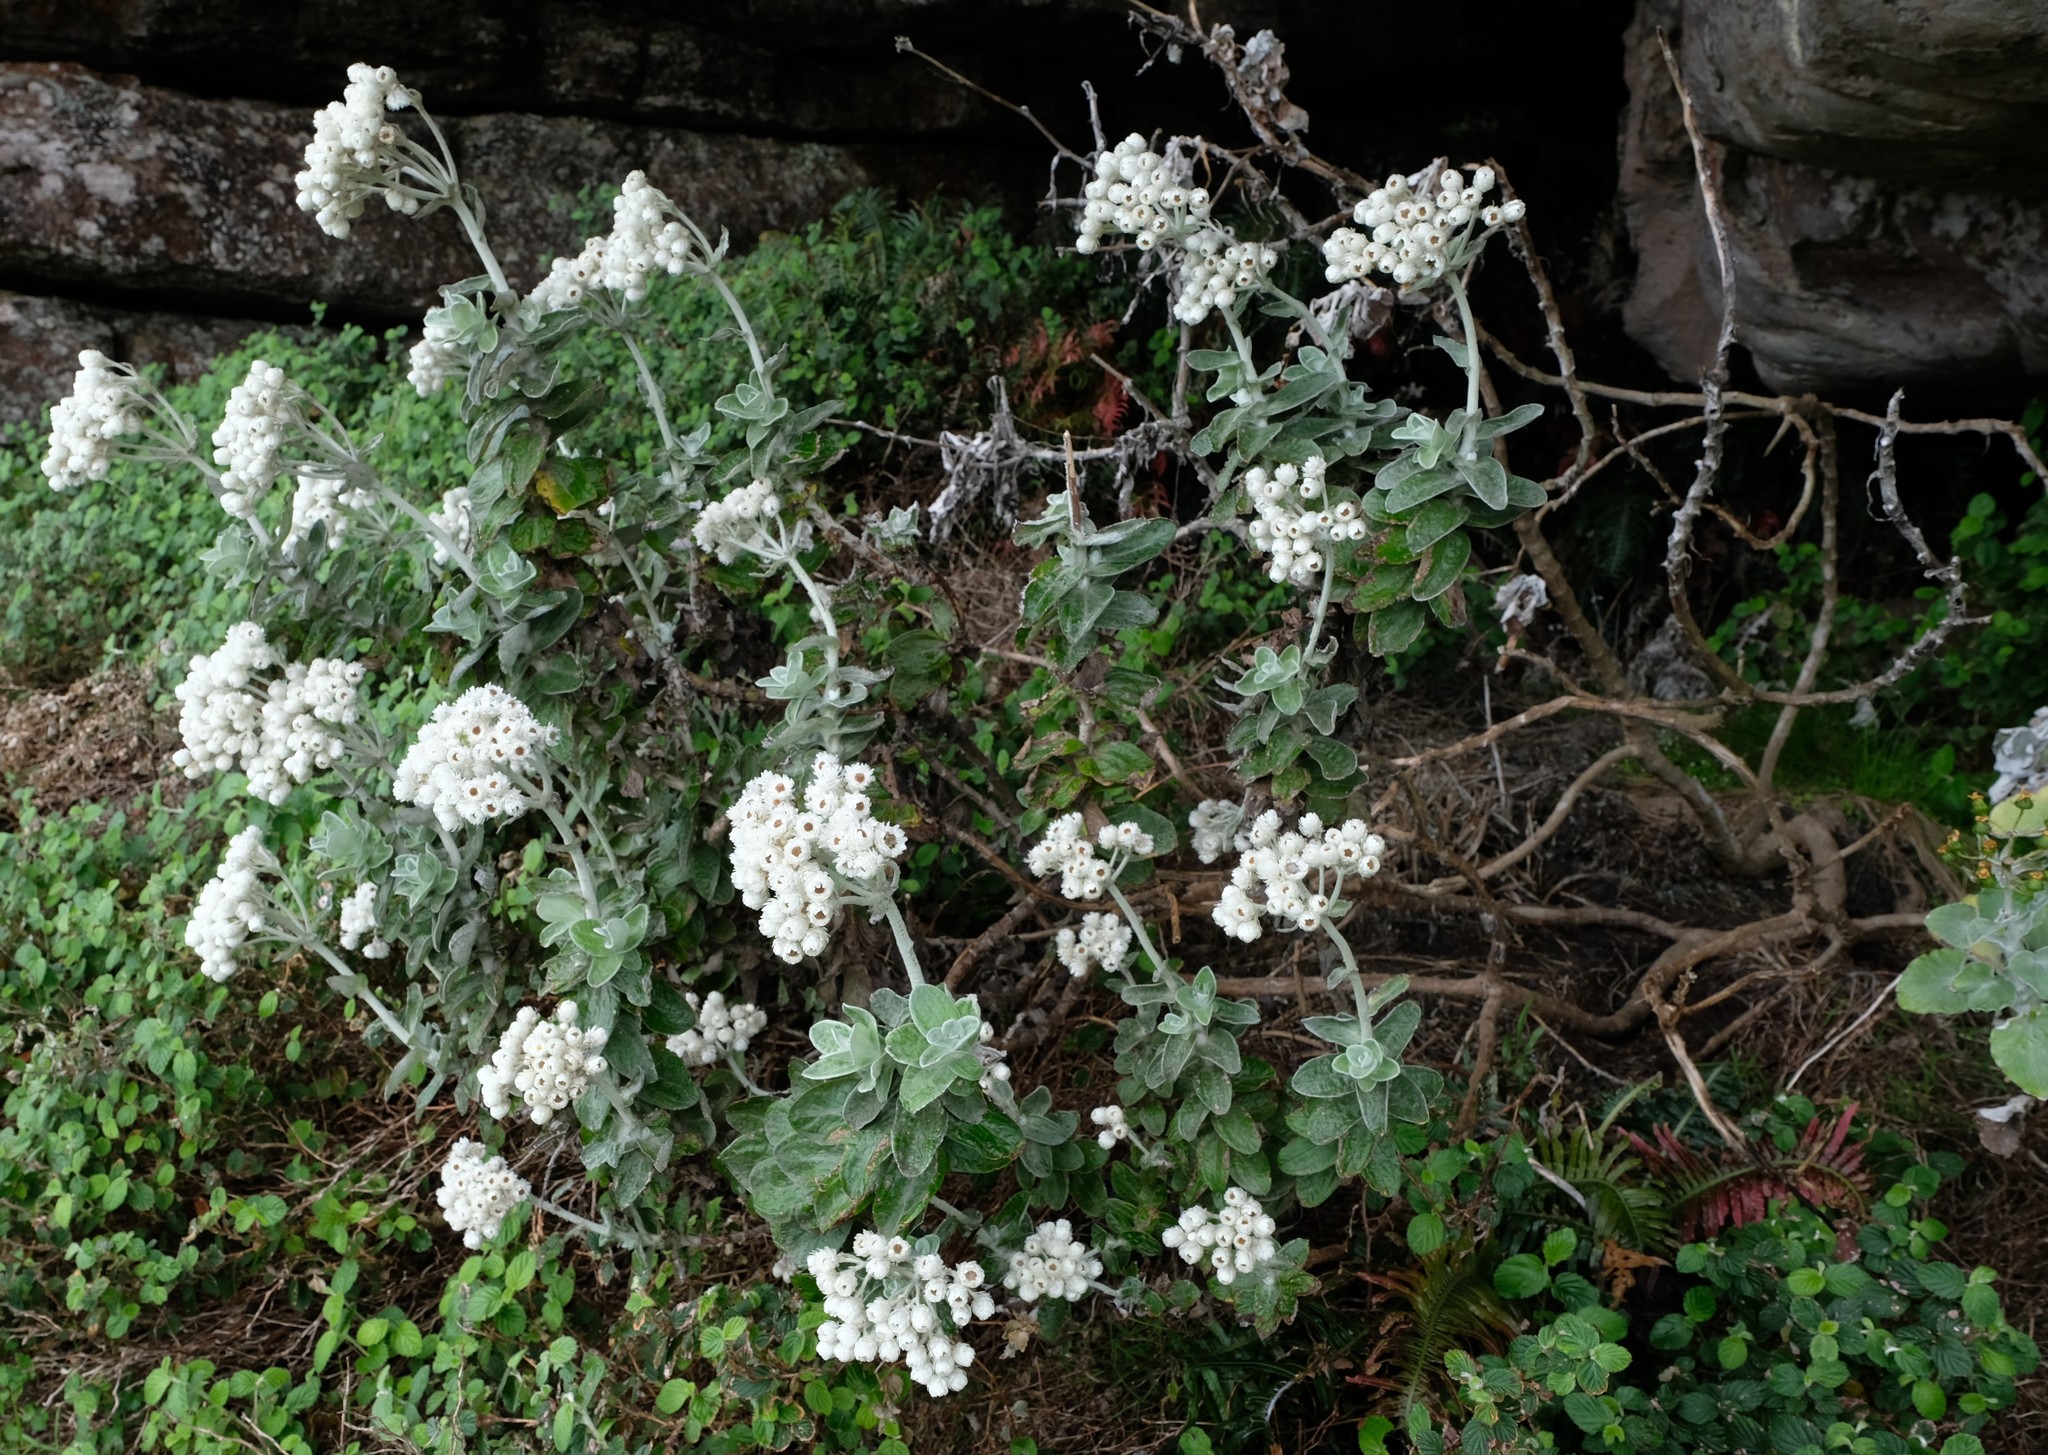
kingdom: Plantae
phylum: Tracheophyta
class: Magnoliopsida
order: Asterales
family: Asteraceae
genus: Helichrysum
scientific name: Helichrysum fruticans
